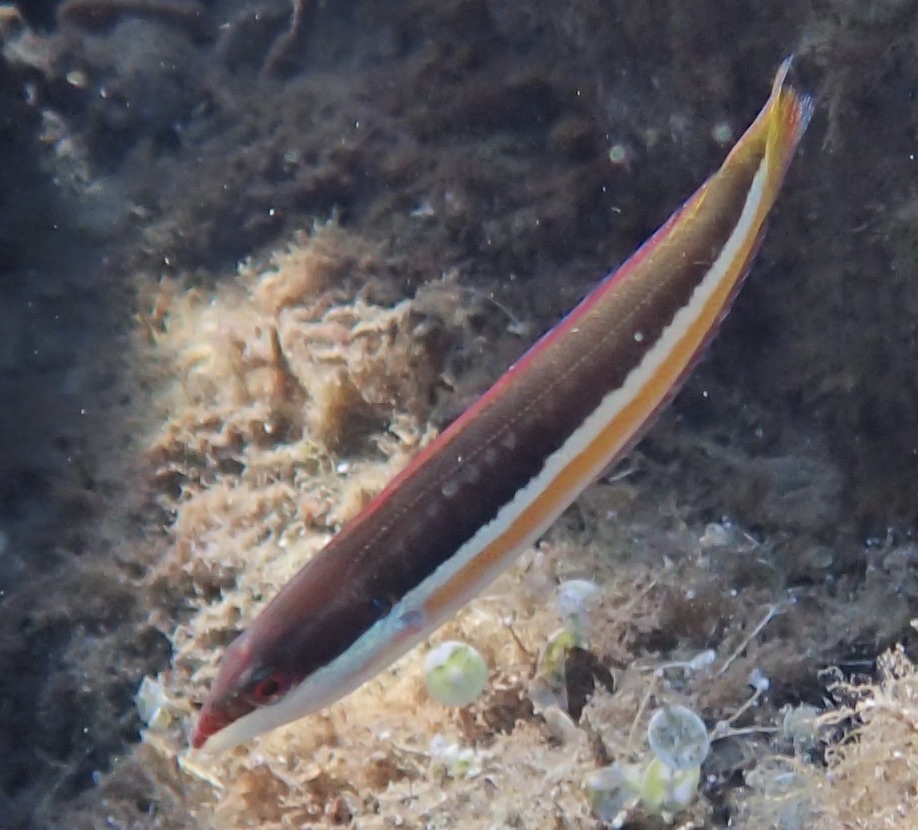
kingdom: Animalia
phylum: Chordata
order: Perciformes
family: Labridae
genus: Coris
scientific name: Coris julis
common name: Rainbow wrasse
